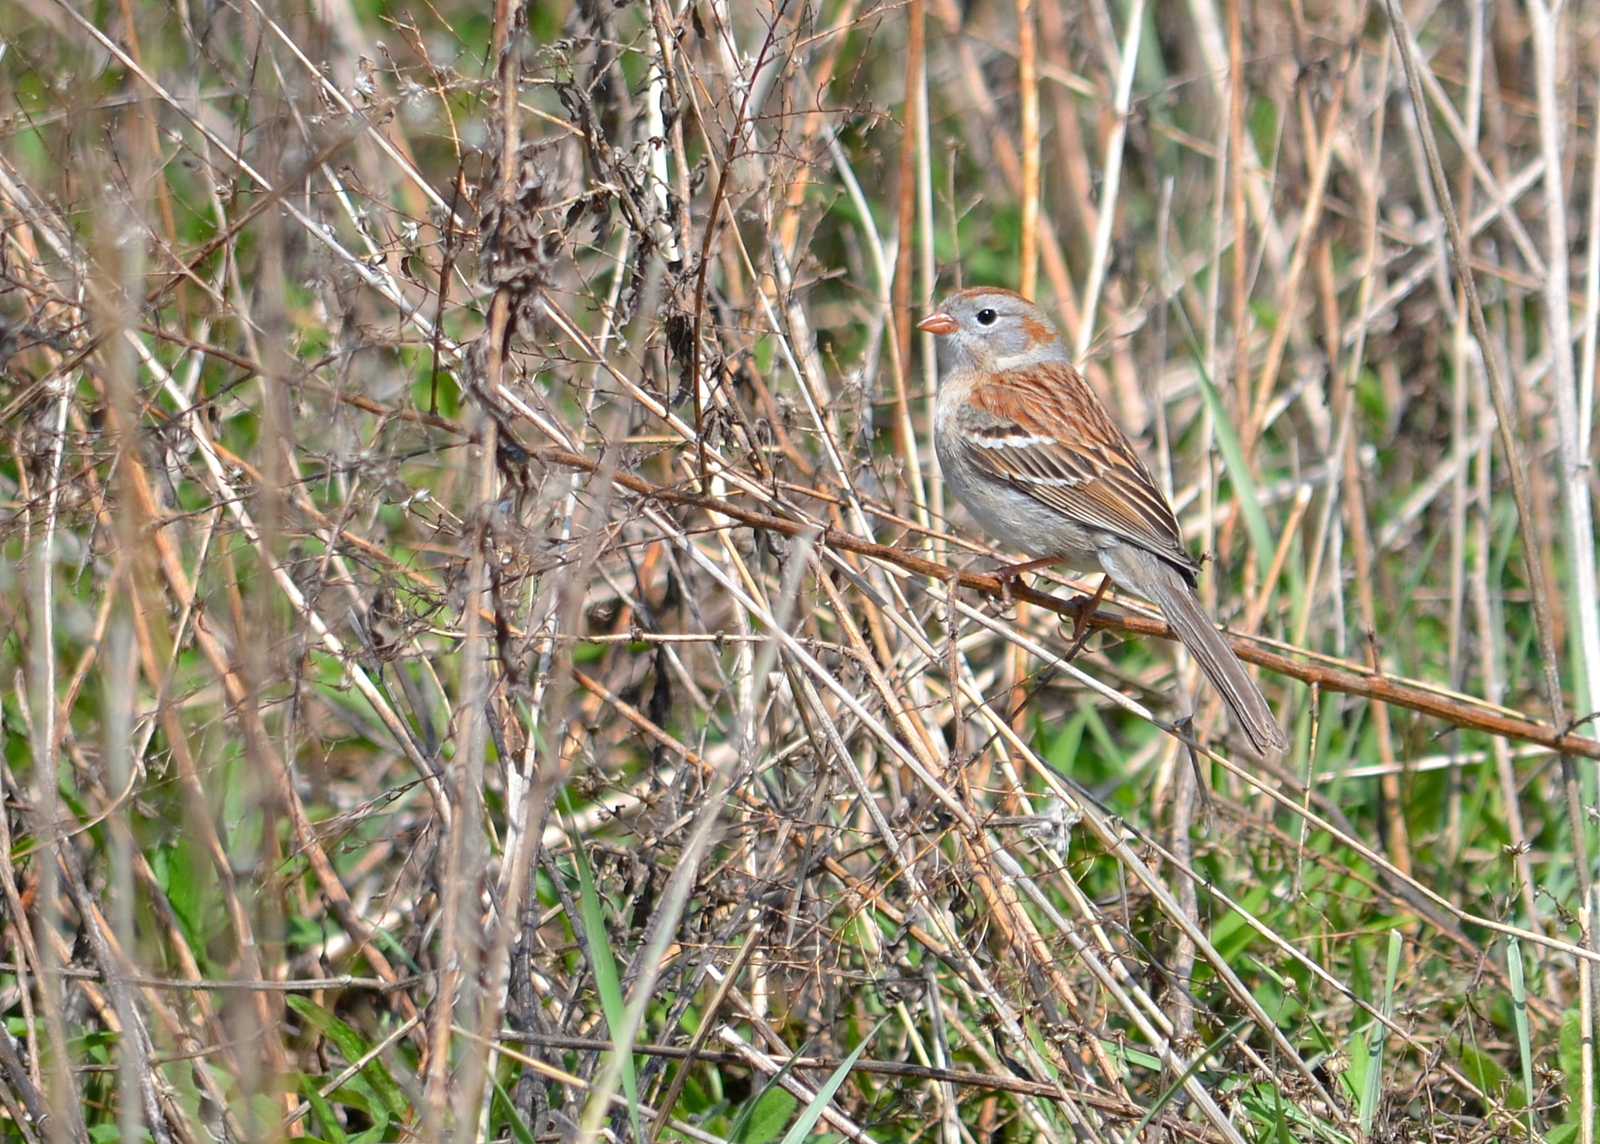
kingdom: Animalia
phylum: Chordata
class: Aves
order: Passeriformes
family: Passerellidae
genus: Spizella
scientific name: Spizella pusilla
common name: Field sparrow
